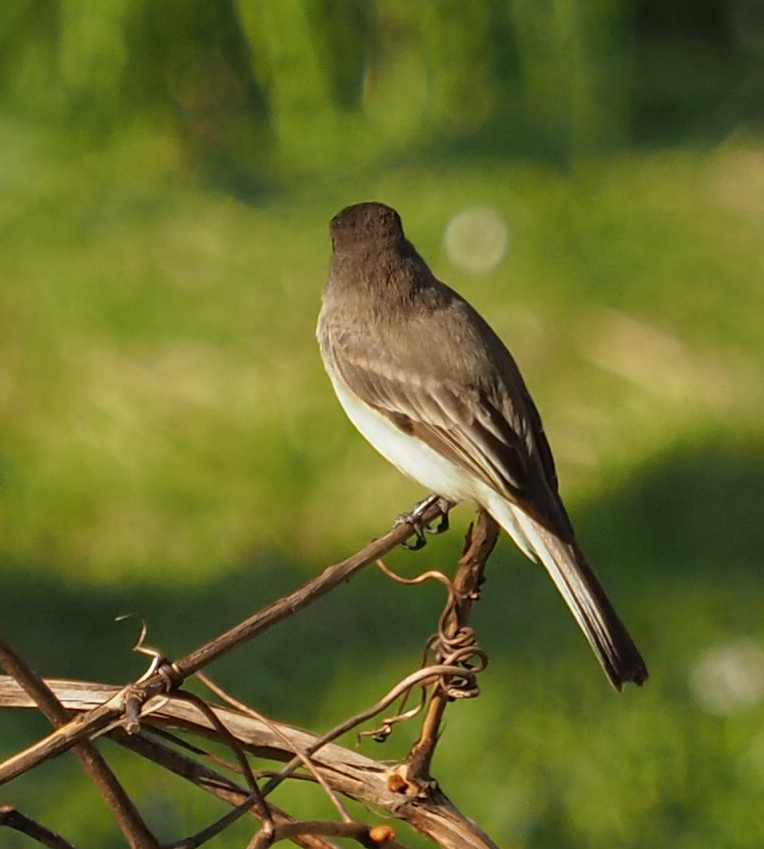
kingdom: Animalia
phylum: Chordata
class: Aves
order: Passeriformes
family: Tyrannidae
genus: Sayornis
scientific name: Sayornis phoebe
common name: Eastern phoebe
